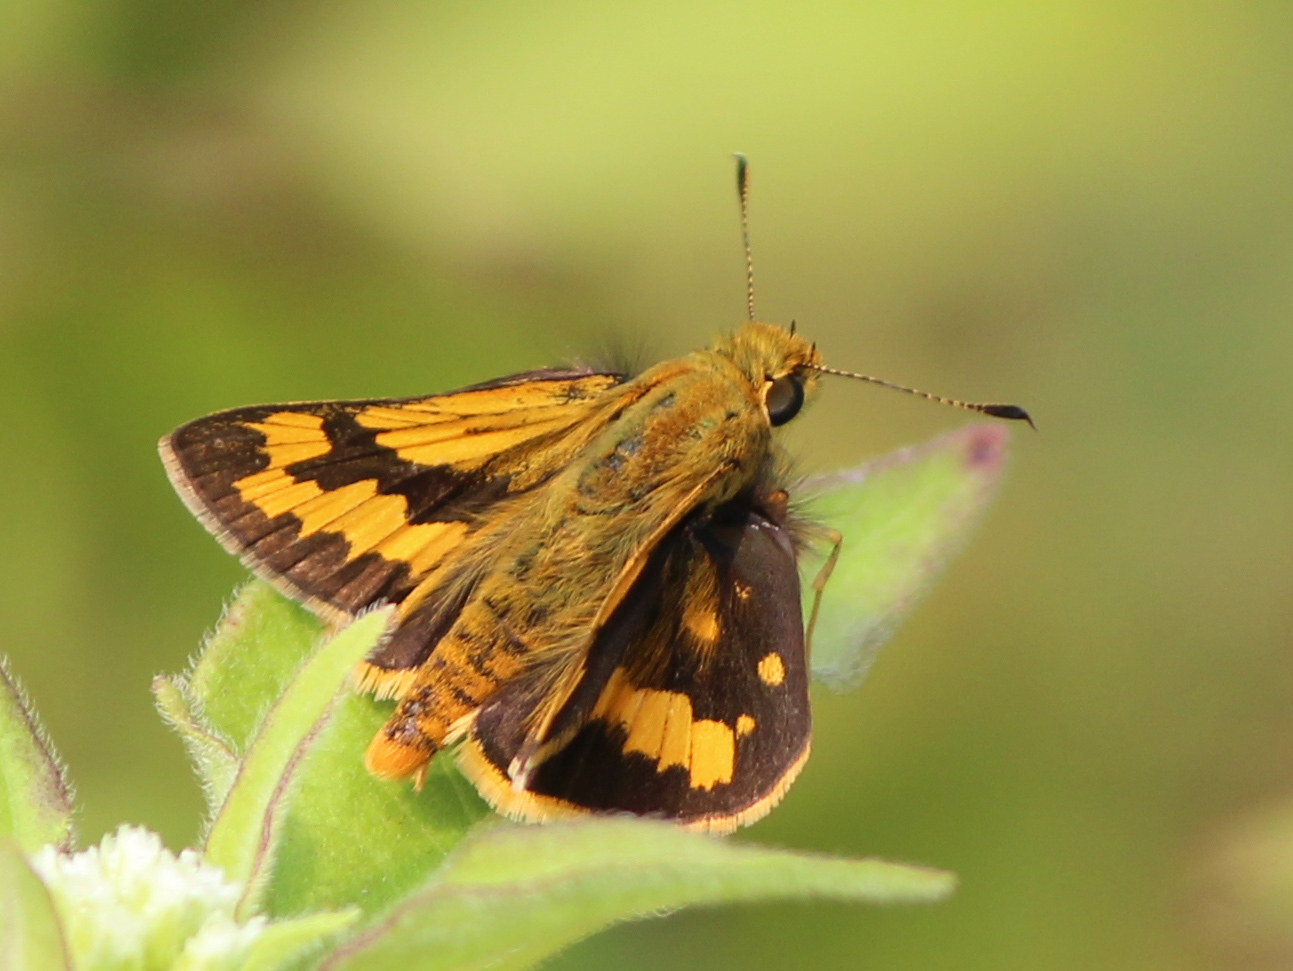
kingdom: Animalia
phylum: Arthropoda
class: Insecta
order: Lepidoptera
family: Hesperiidae
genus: Potanthus
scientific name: Potanthus pava
